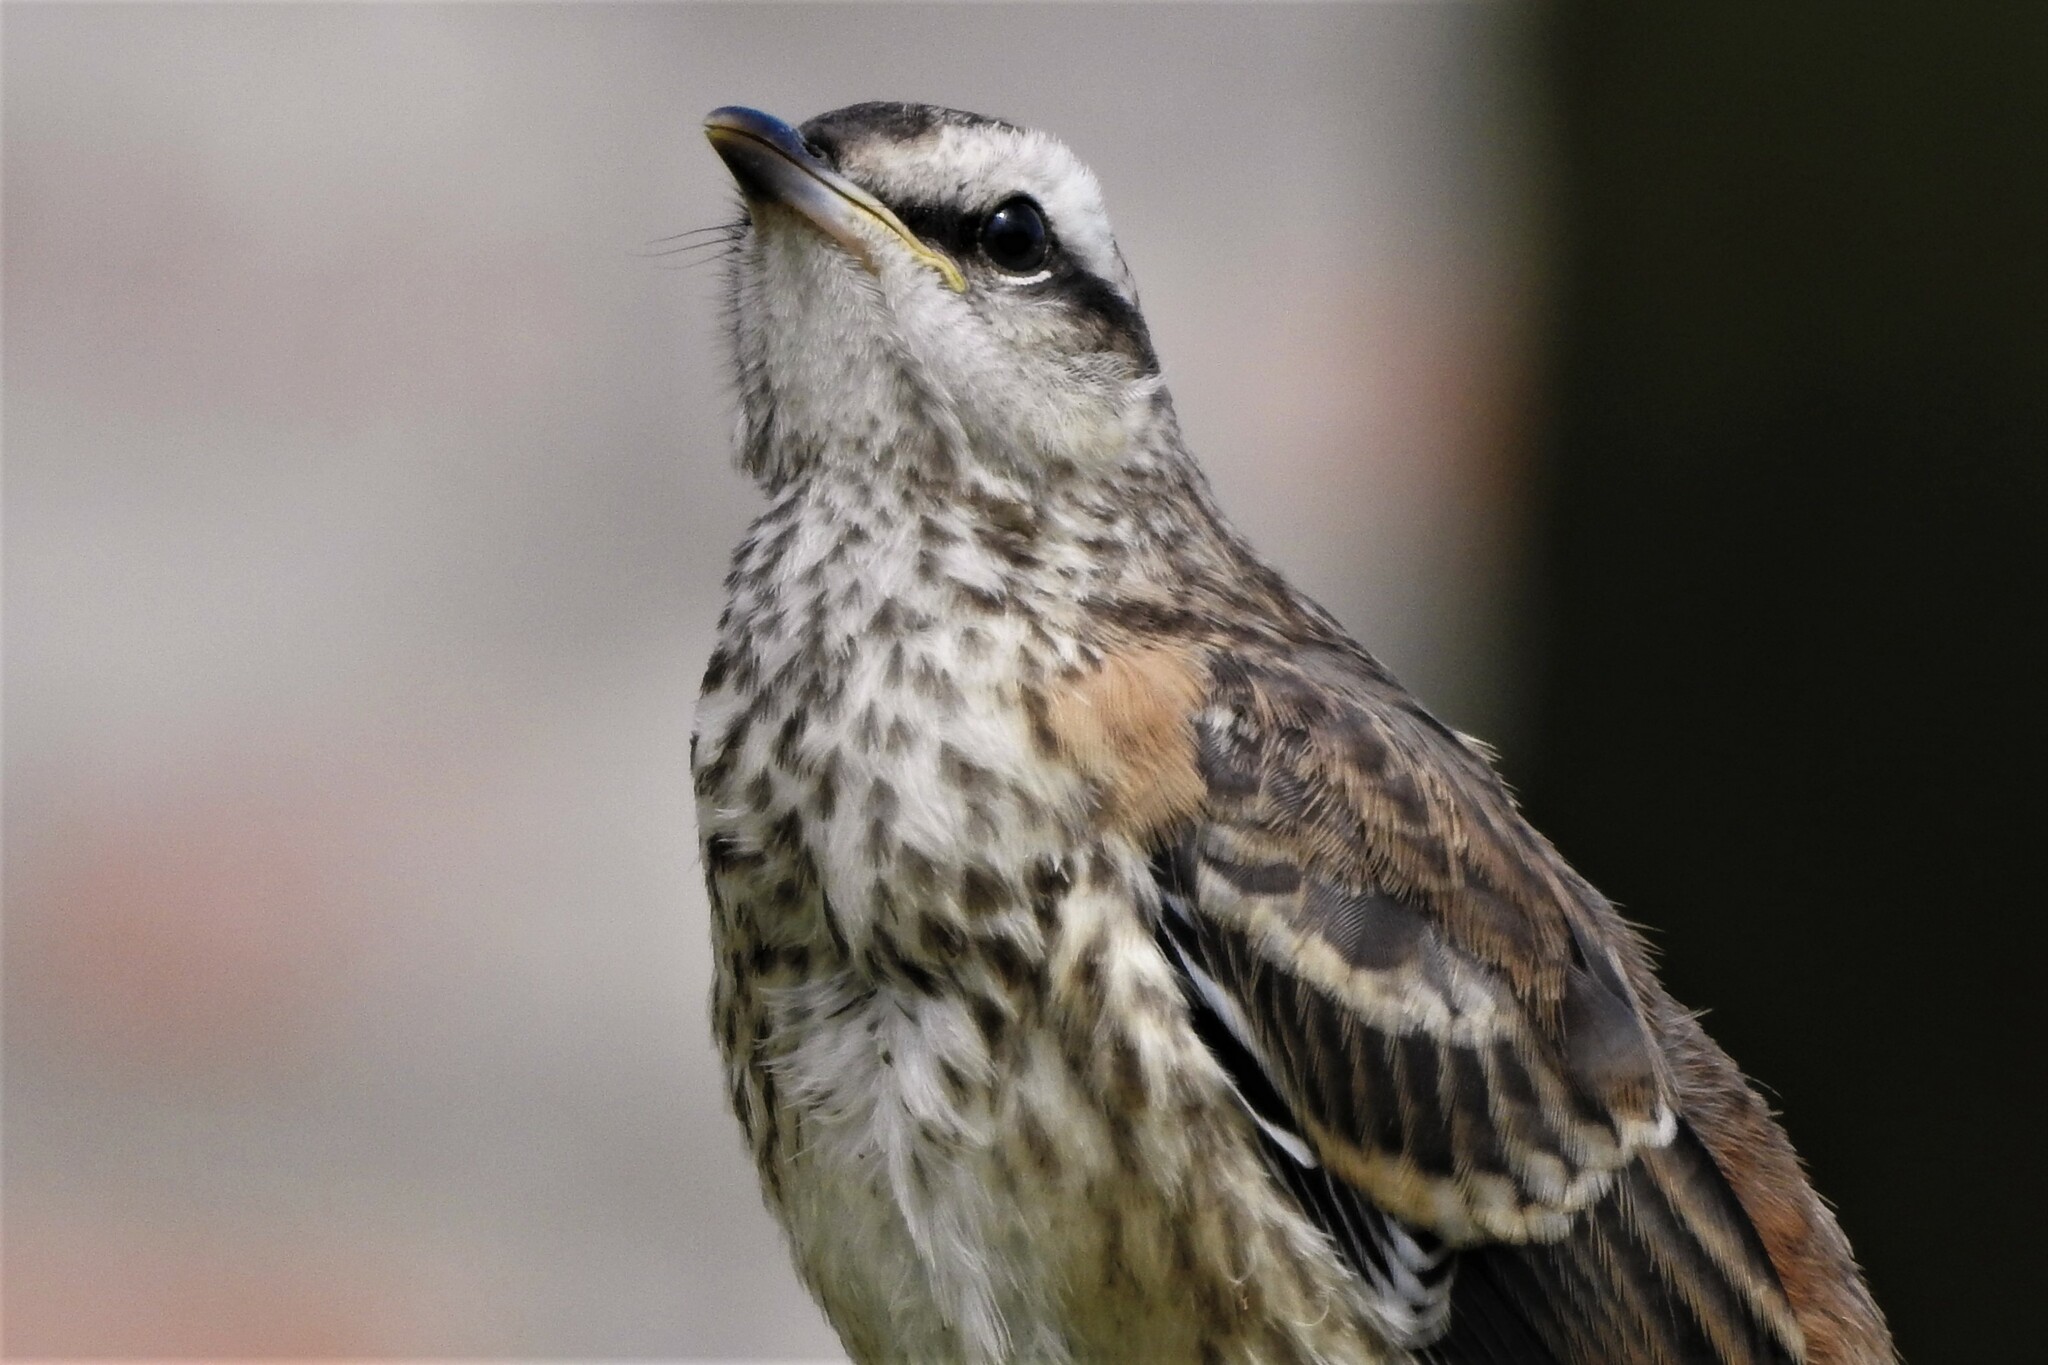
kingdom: Animalia
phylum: Chordata
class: Aves
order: Passeriformes
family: Mimidae
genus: Mimus
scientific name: Mimus saturninus
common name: Chalk-browed mockingbird
